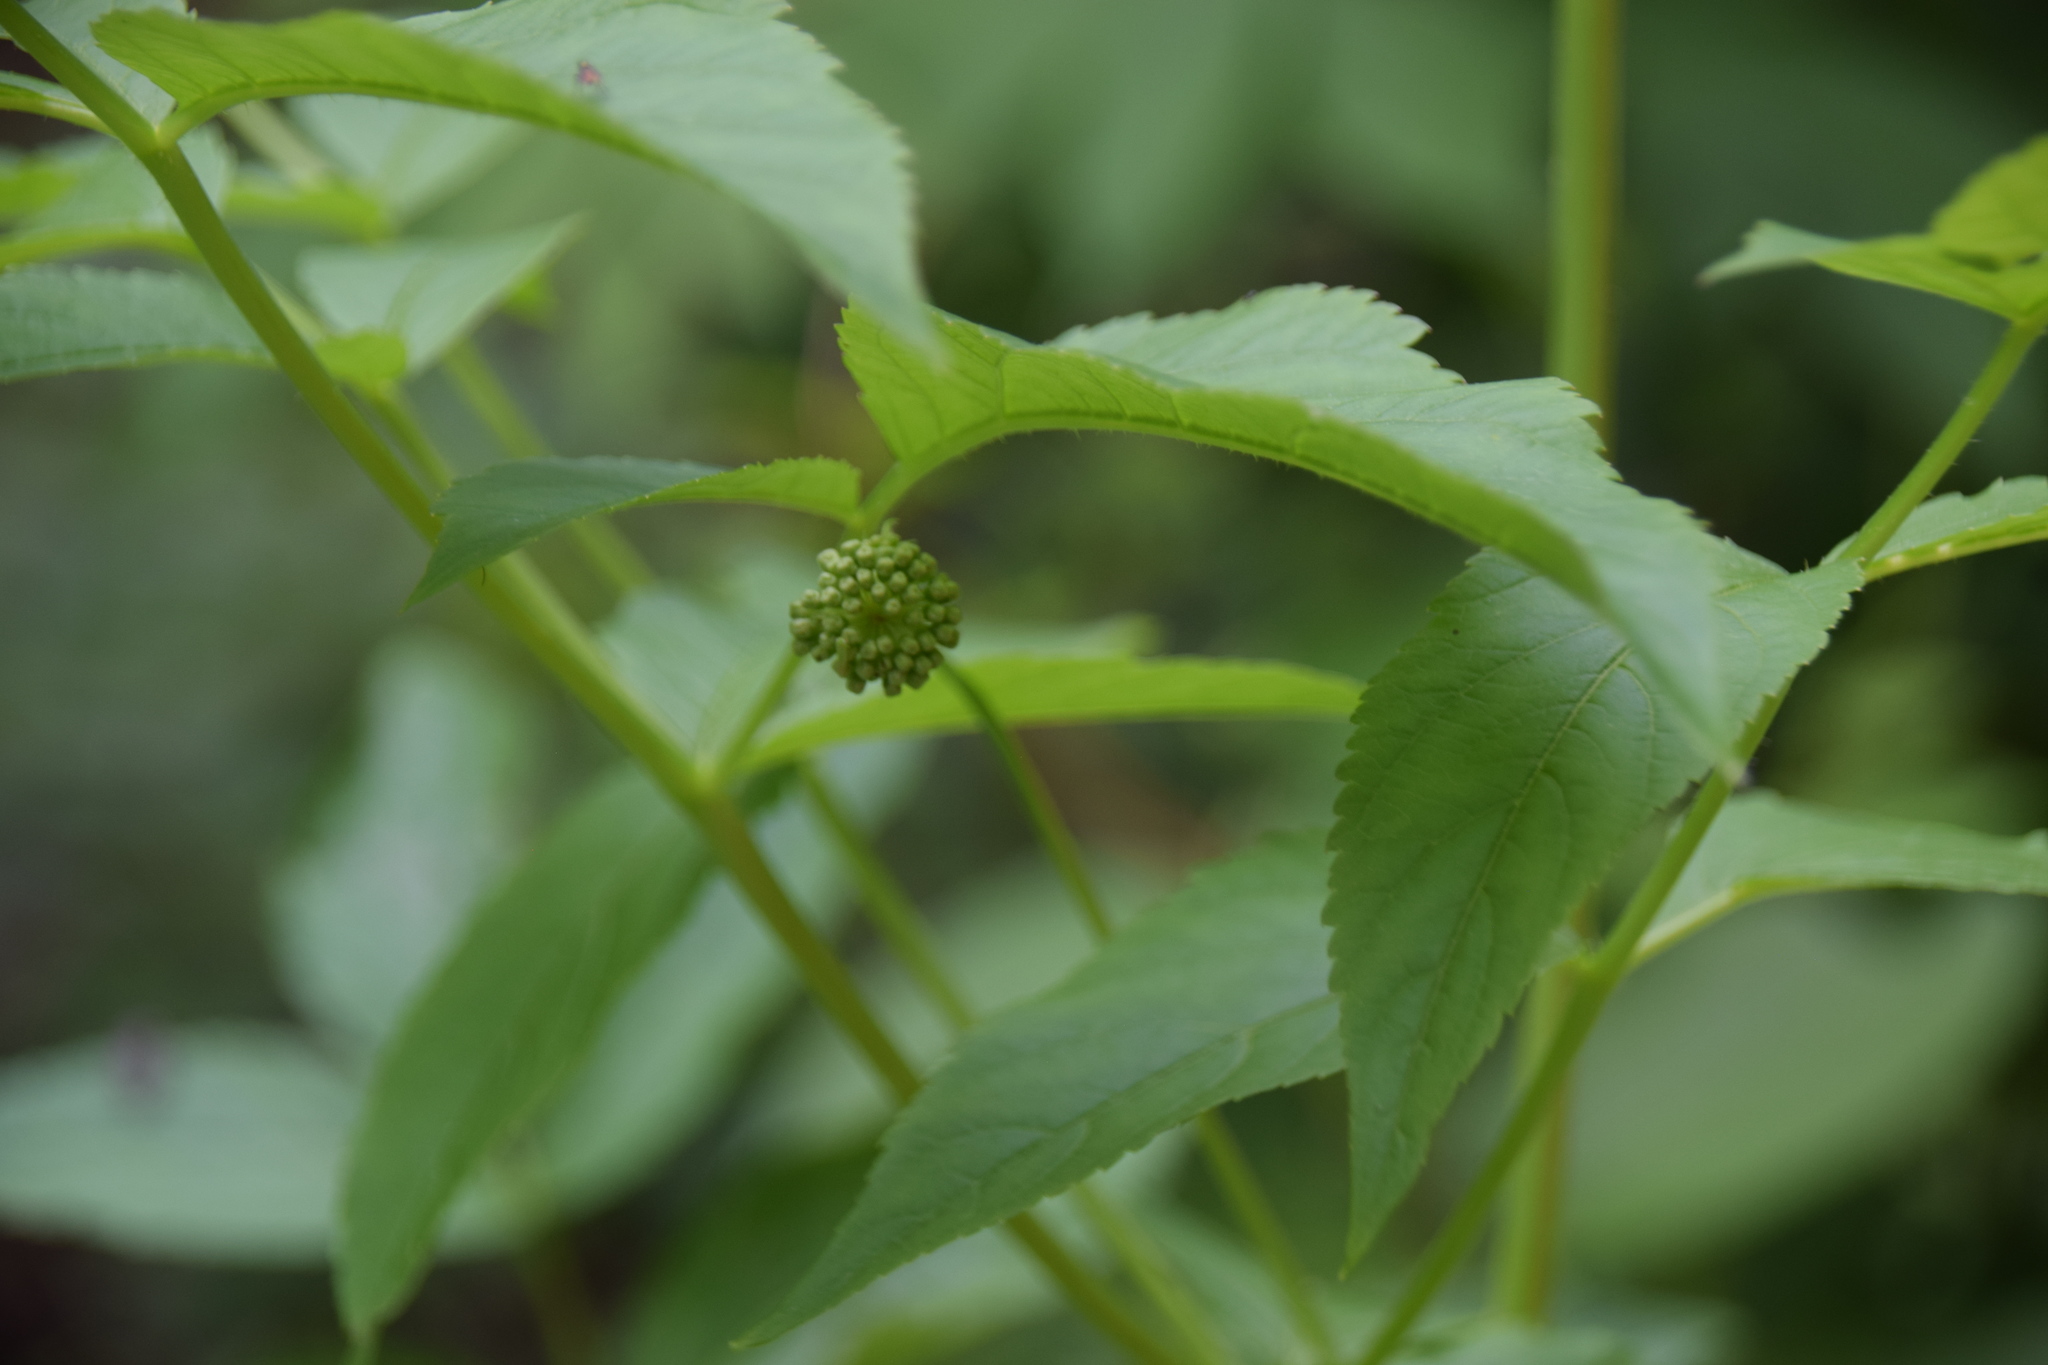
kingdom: Plantae
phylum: Tracheophyta
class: Magnoliopsida
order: Apiales
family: Araliaceae
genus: Aralia
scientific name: Aralia hispida
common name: Bristly sarsaparilla
